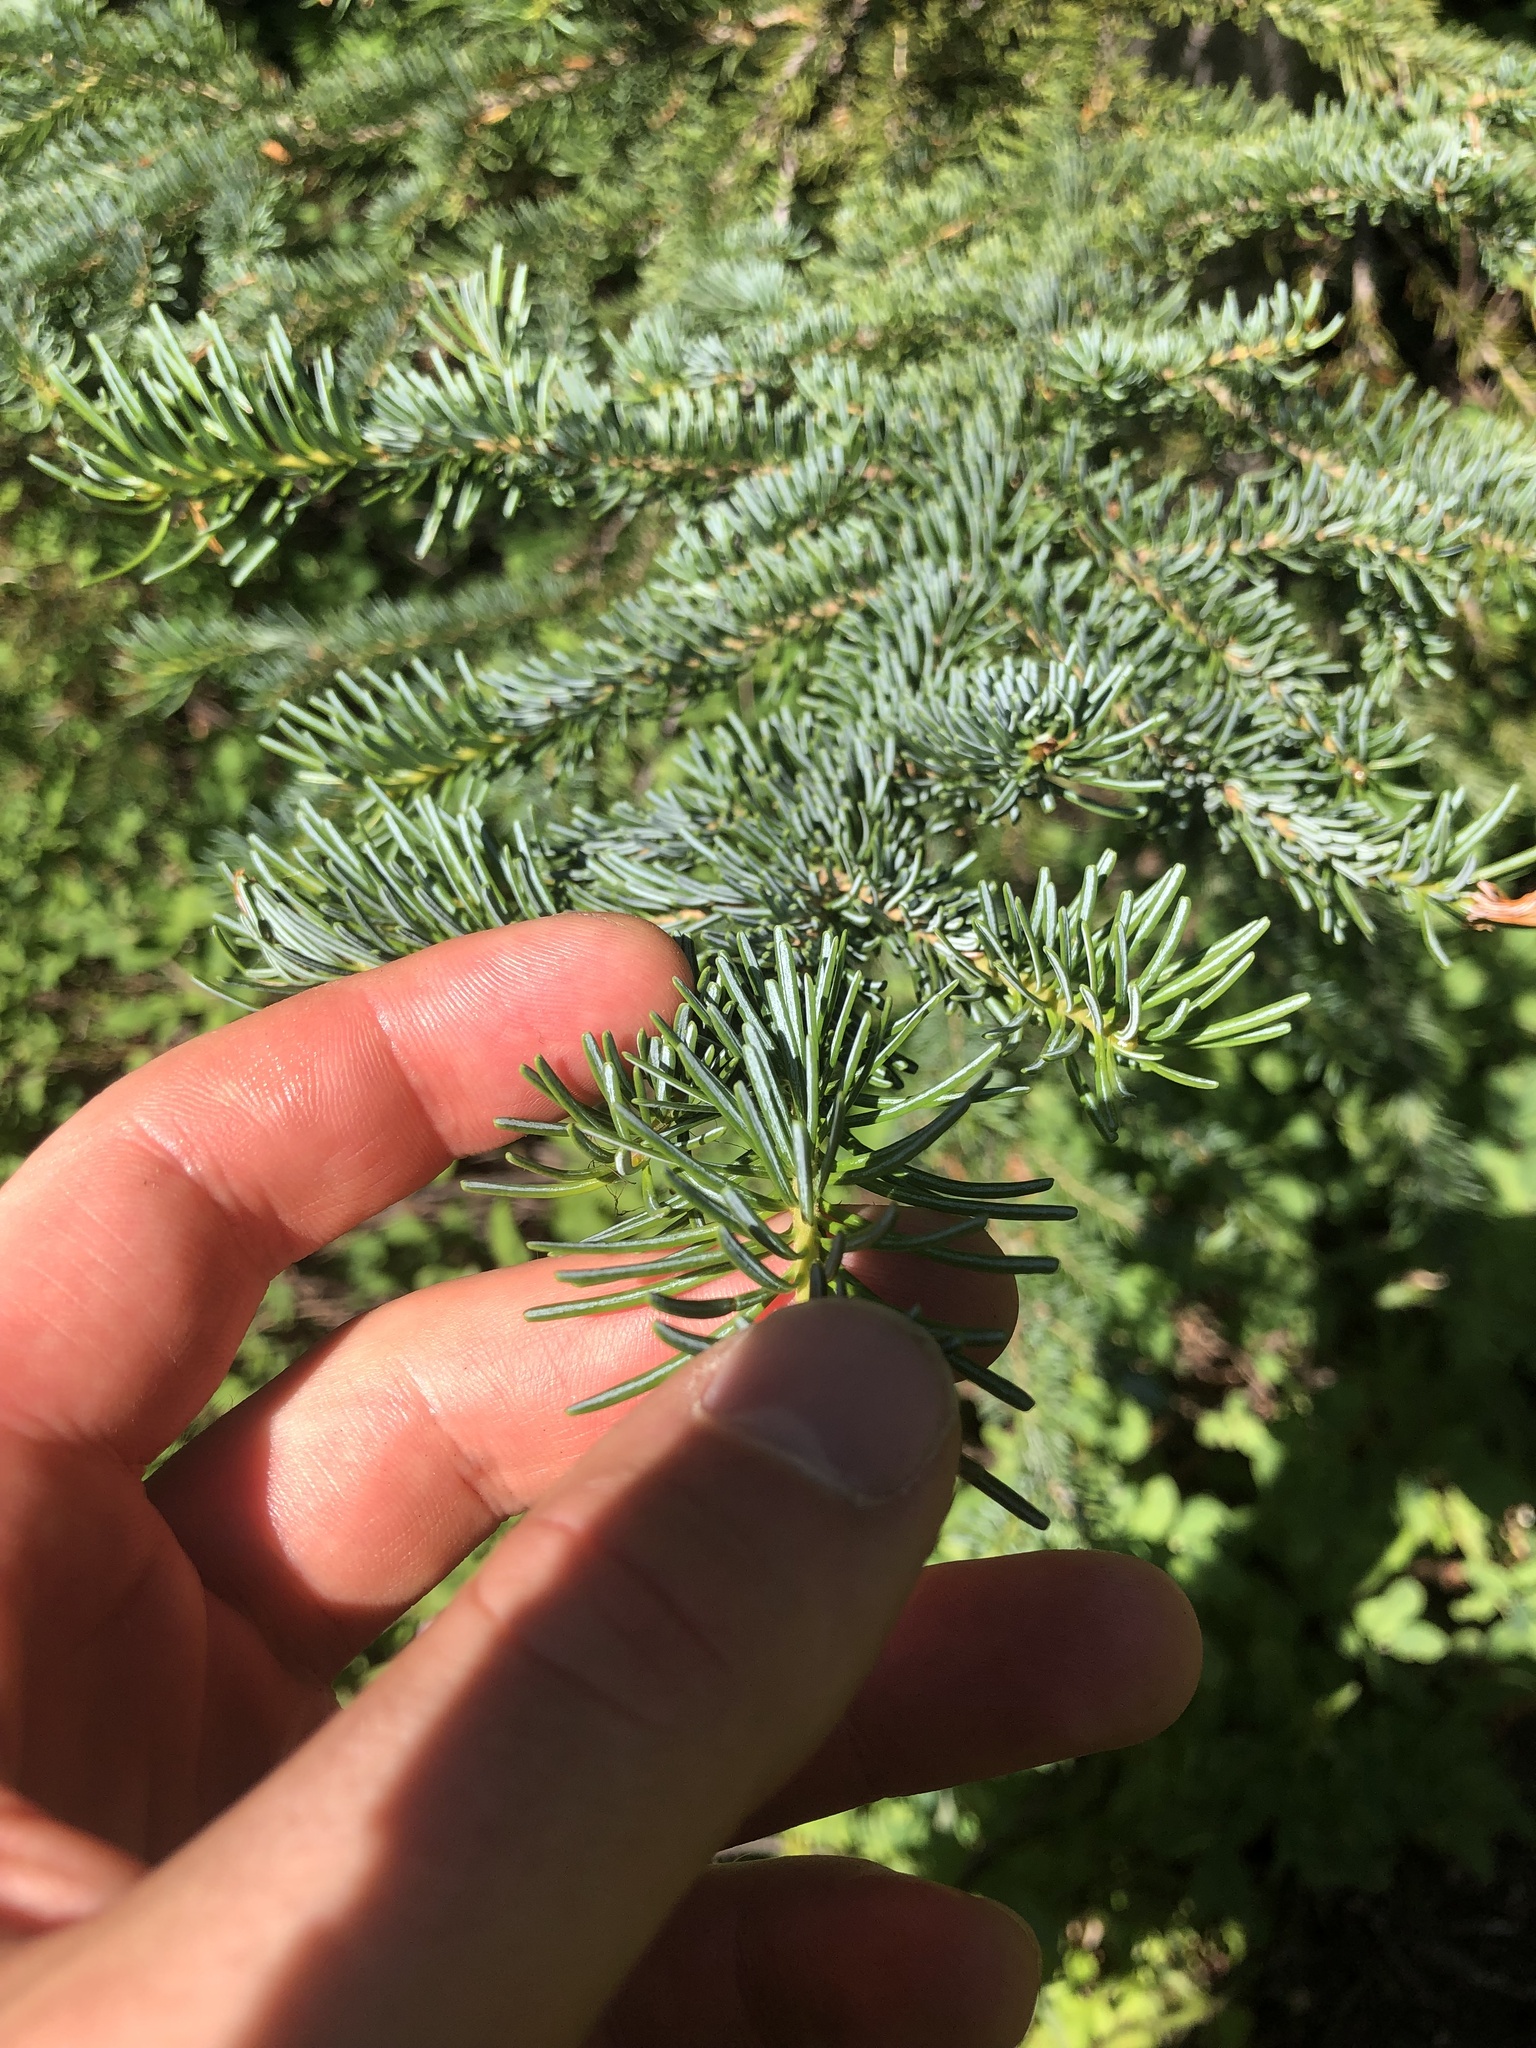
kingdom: Plantae
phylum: Tracheophyta
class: Pinopsida
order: Pinales
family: Pinaceae
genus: Abies
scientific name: Abies lasiocarpa
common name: Subalpine fir
